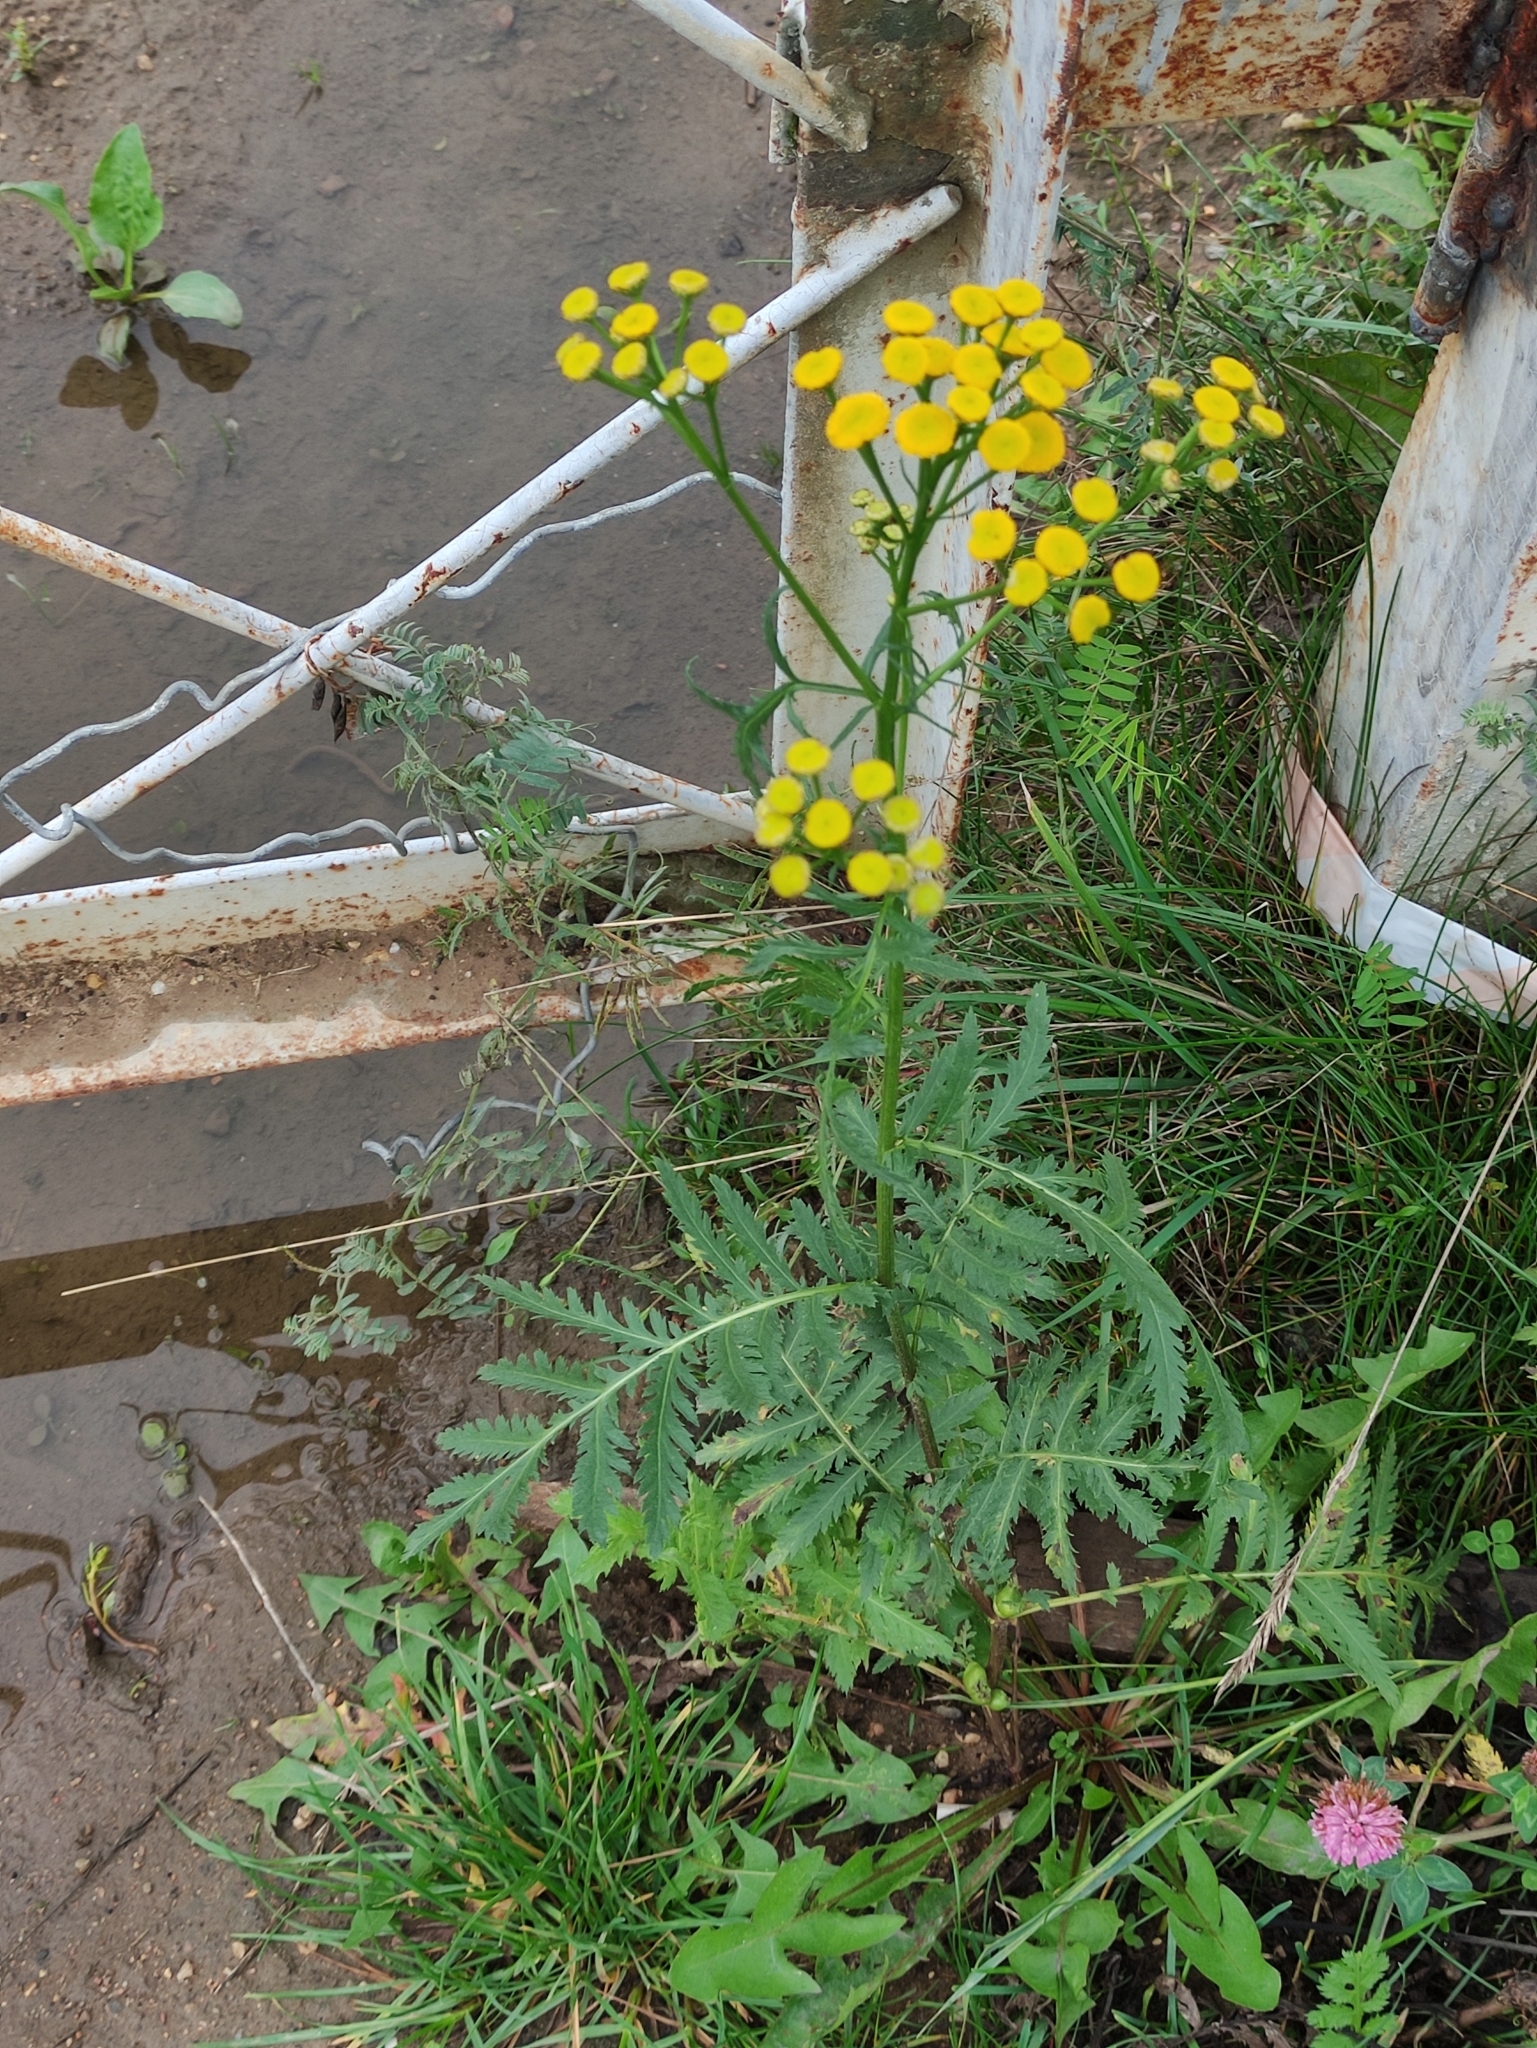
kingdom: Plantae
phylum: Tracheophyta
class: Magnoliopsida
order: Asterales
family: Asteraceae
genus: Tanacetum
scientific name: Tanacetum vulgare
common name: Common tansy
